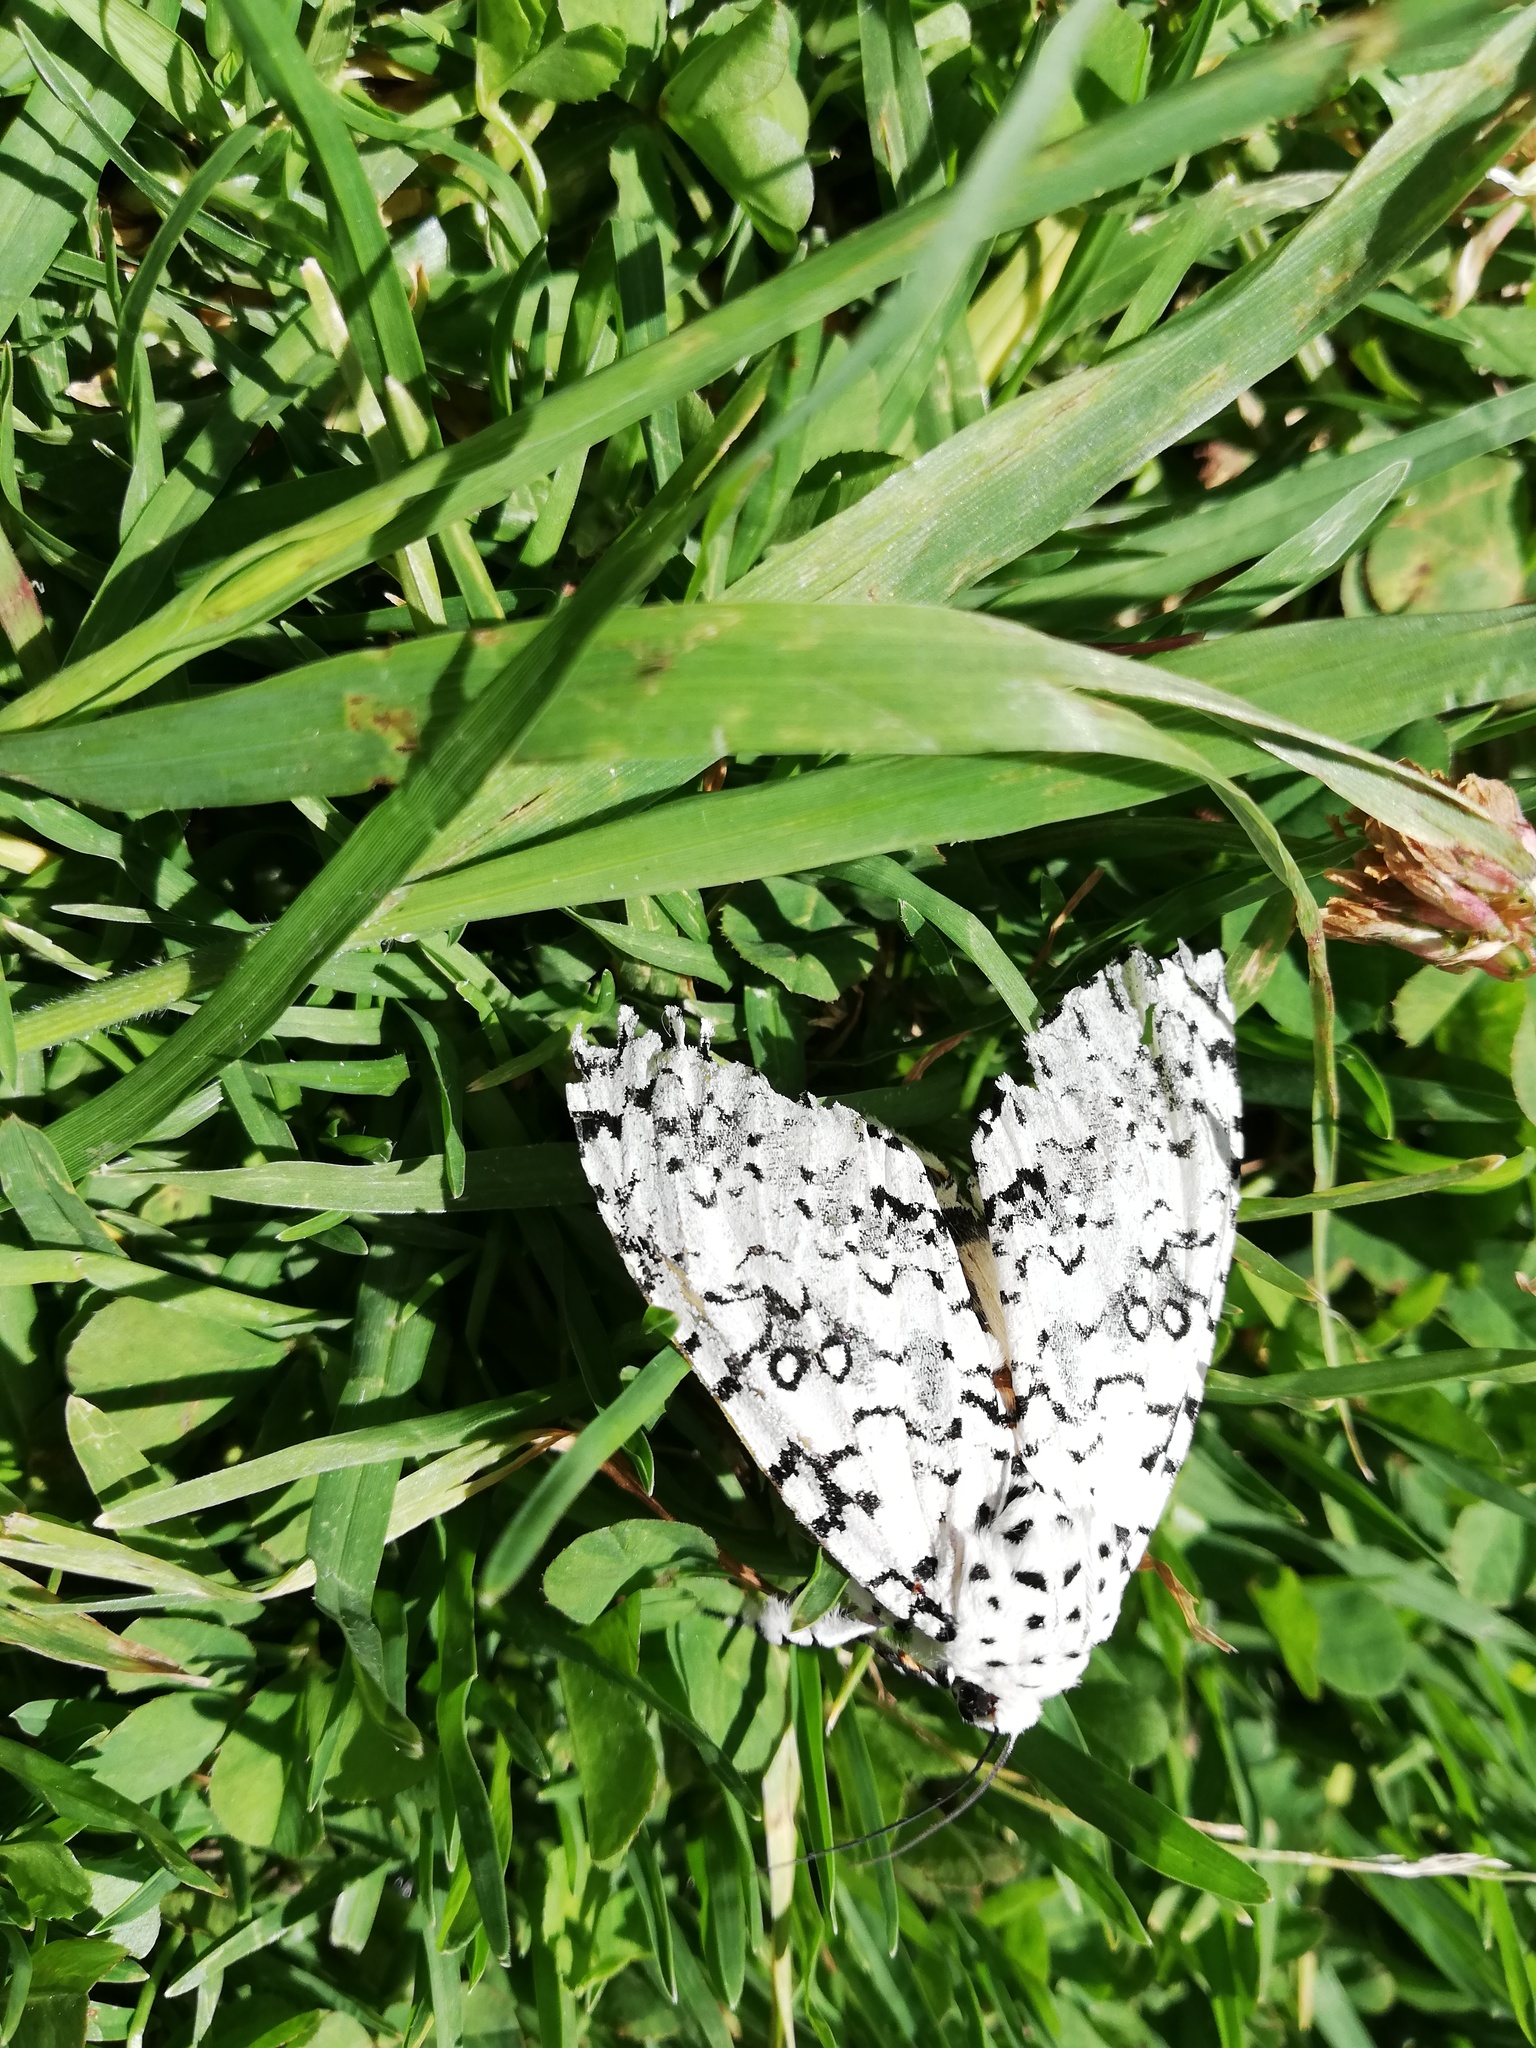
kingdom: Animalia
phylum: Arthropoda
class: Insecta
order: Lepidoptera
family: Noctuidae
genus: Lichnoptera
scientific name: Lichnoptera decora
